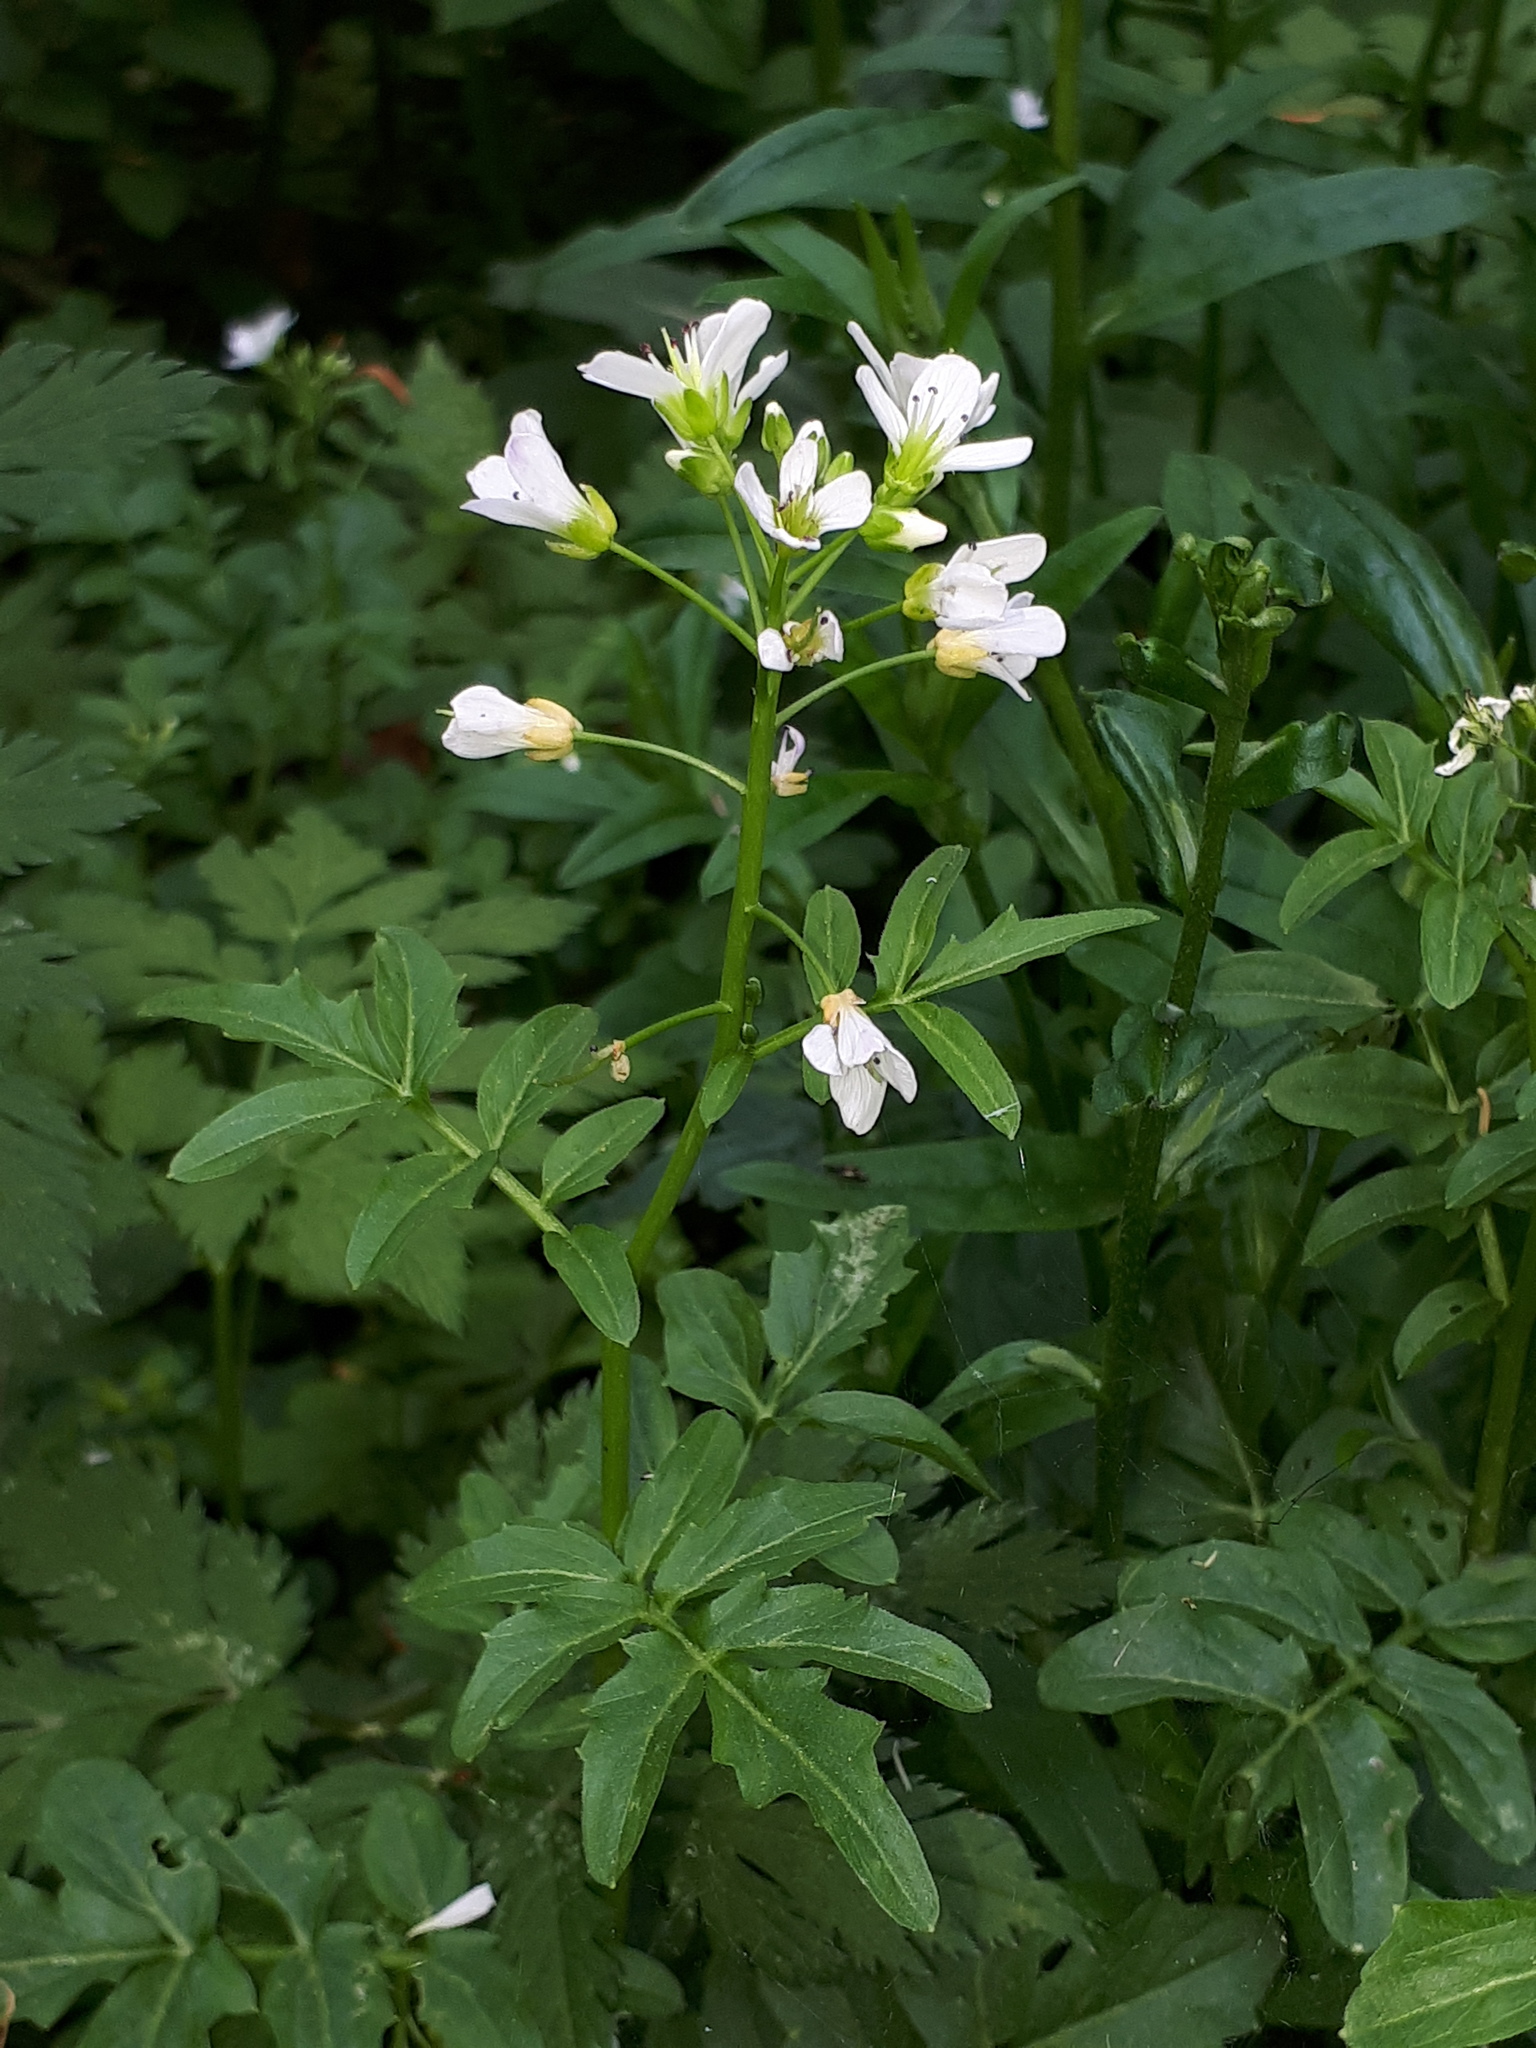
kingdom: Plantae
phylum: Tracheophyta
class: Magnoliopsida
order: Brassicales
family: Brassicaceae
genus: Cardamine
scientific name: Cardamine amara
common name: Large bitter-cress
